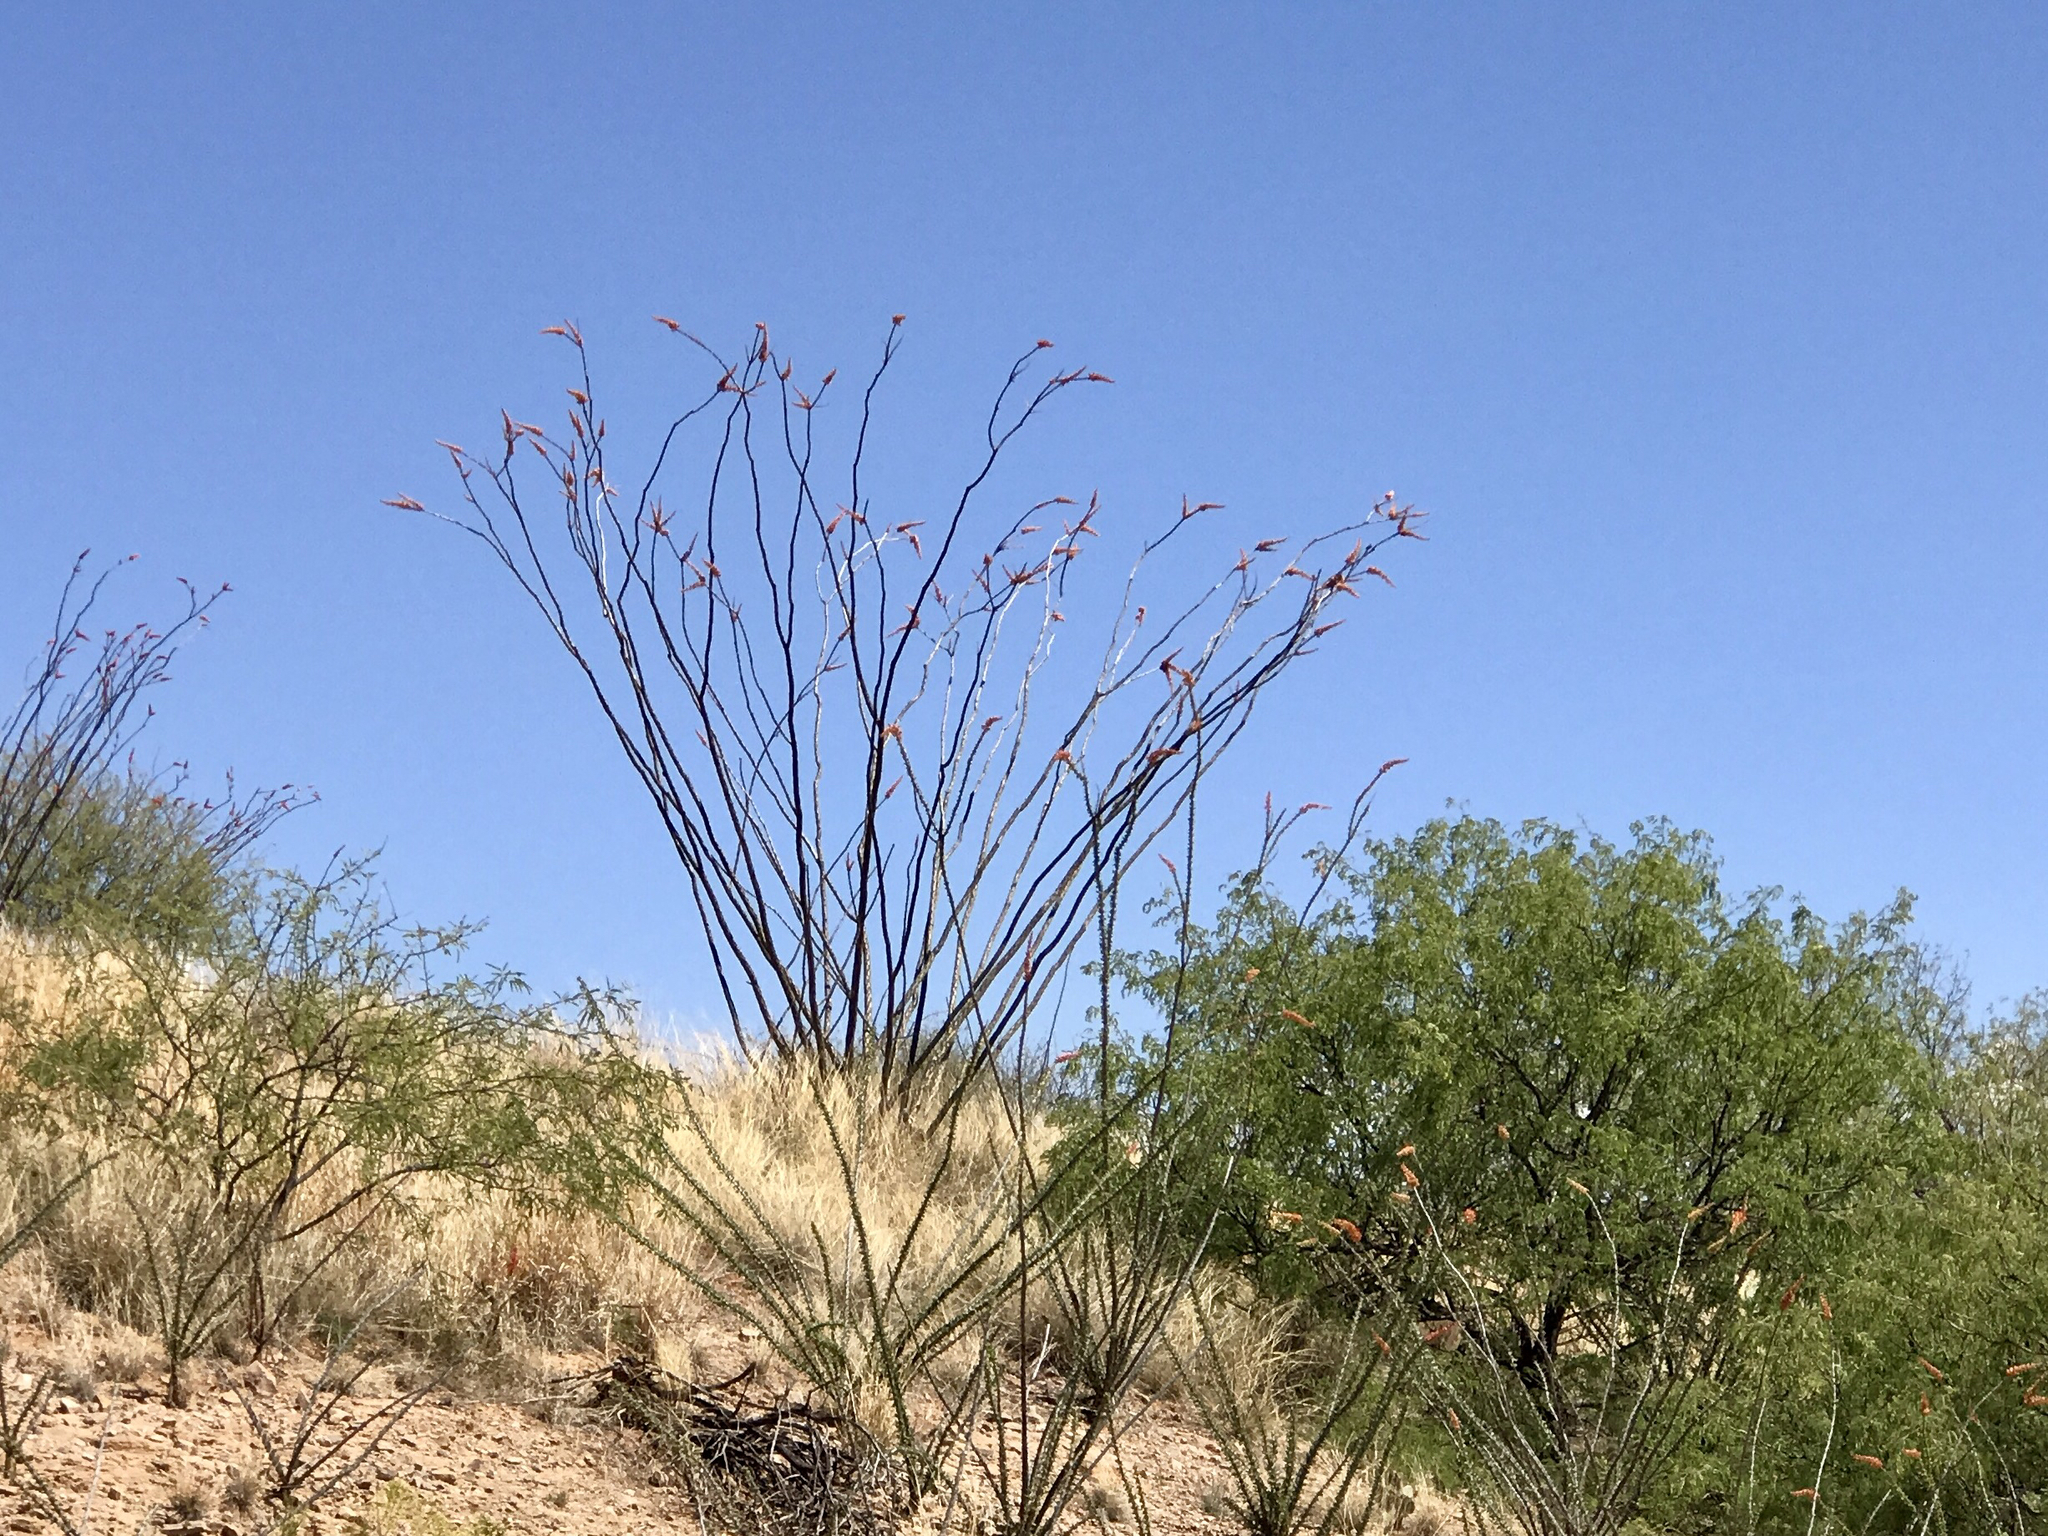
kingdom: Plantae
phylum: Tracheophyta
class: Magnoliopsida
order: Ericales
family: Fouquieriaceae
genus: Fouquieria
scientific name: Fouquieria splendens
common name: Vine-cactus
